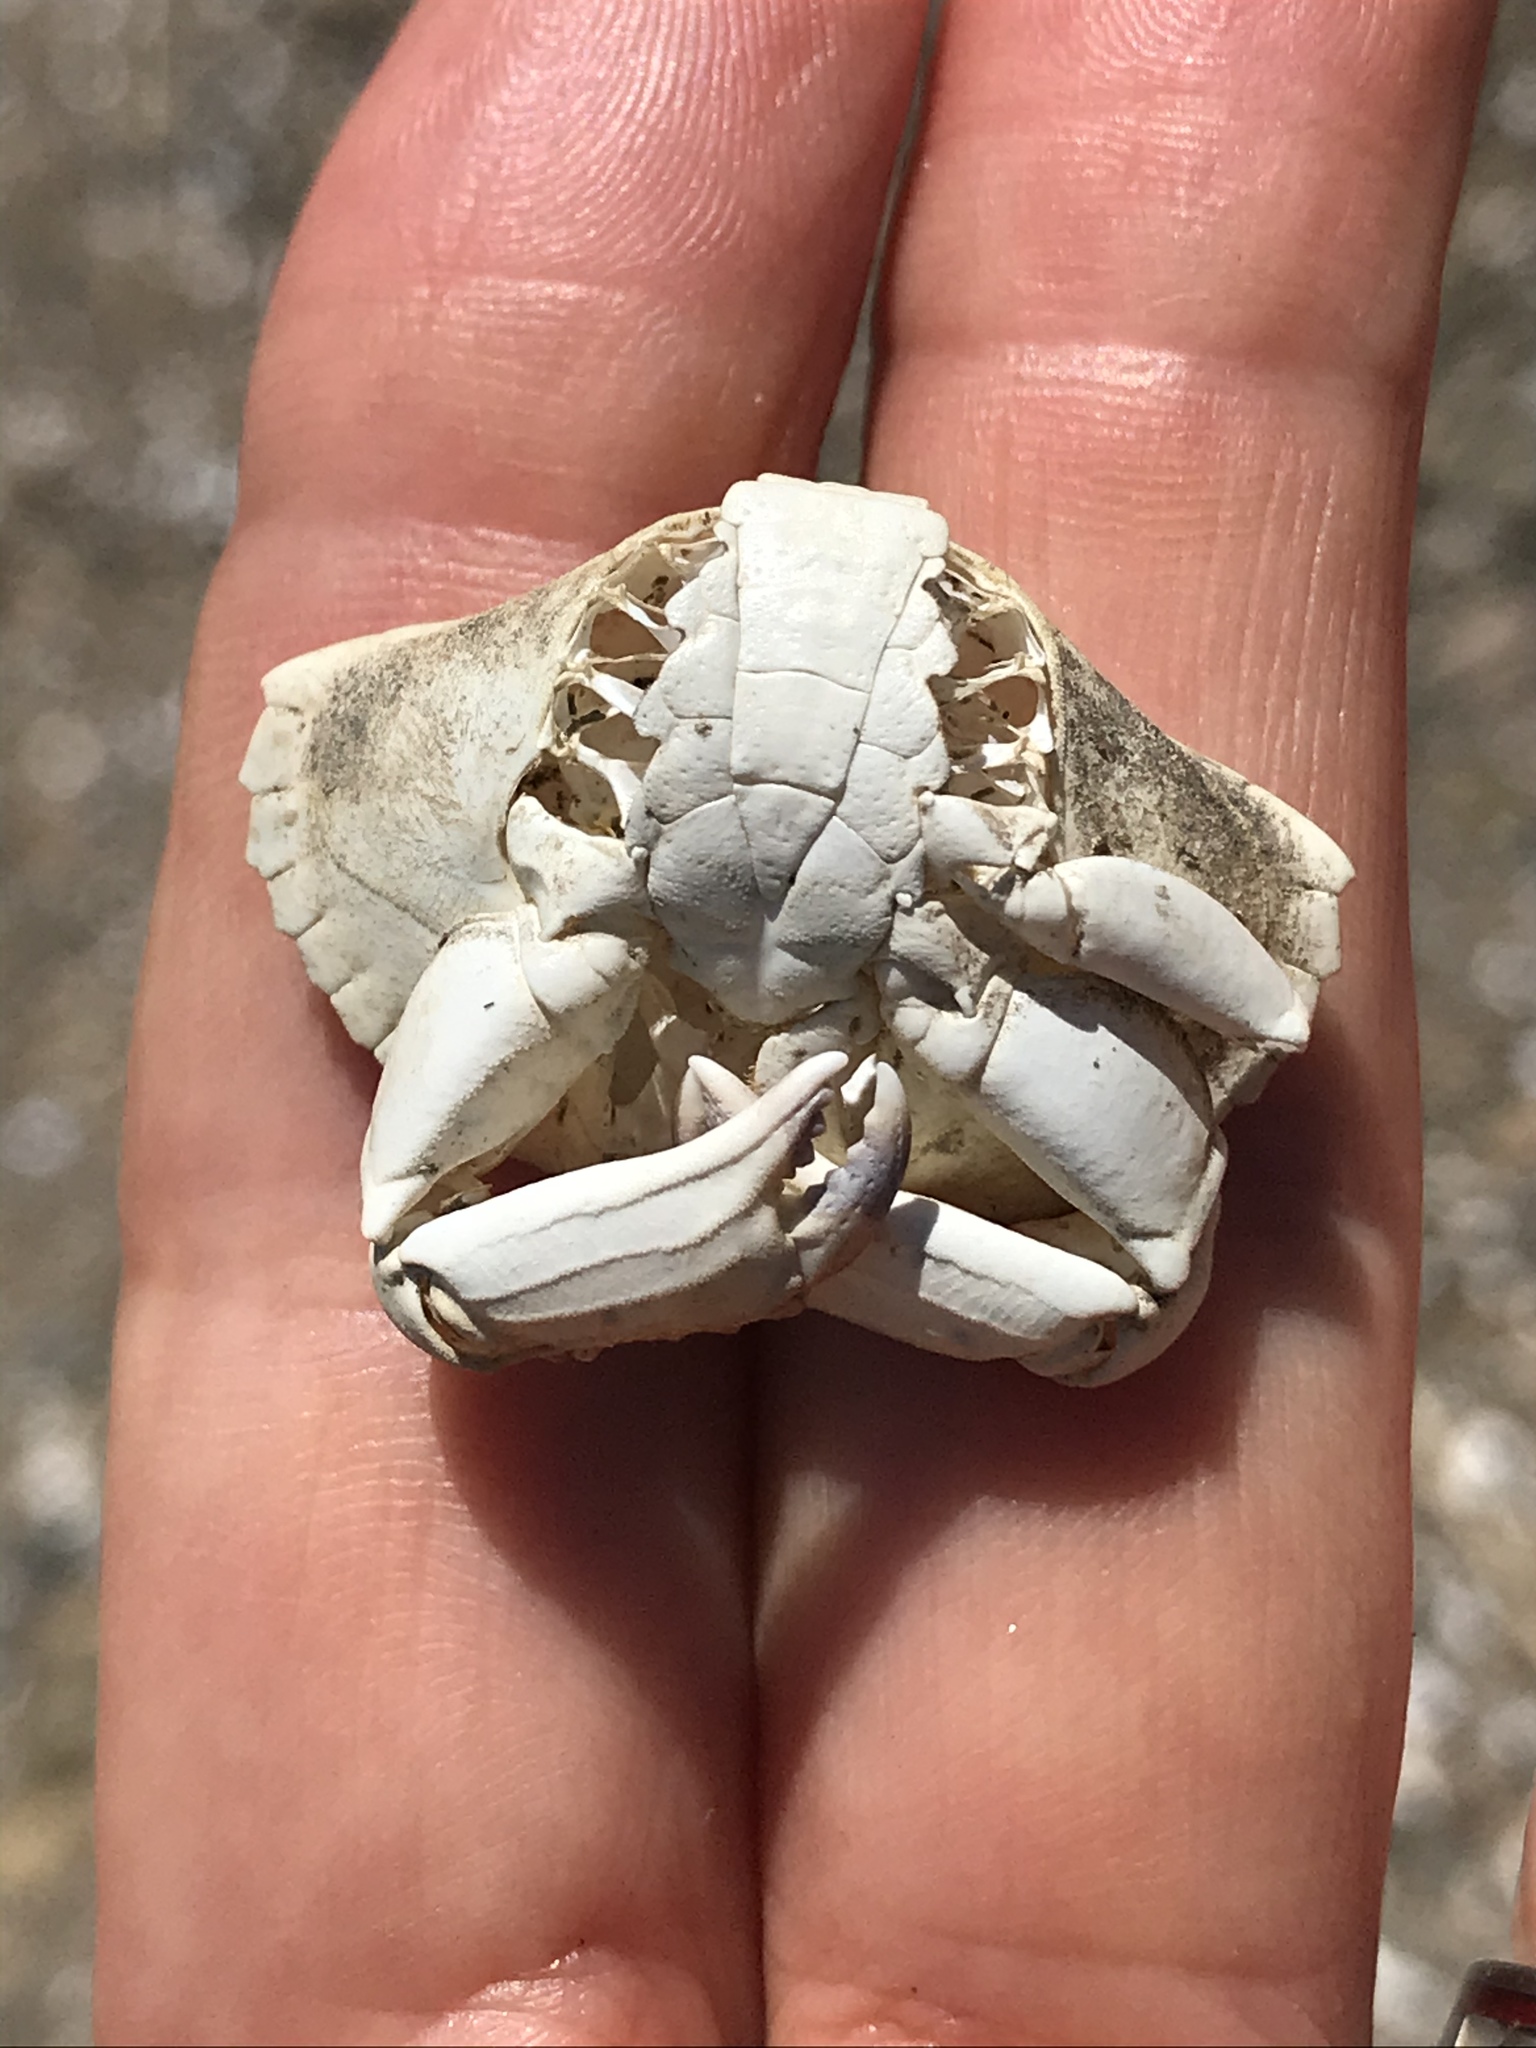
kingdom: Animalia
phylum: Arthropoda
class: Malacostraca
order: Decapoda
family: Cancridae
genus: Cancer
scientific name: Cancer productus
